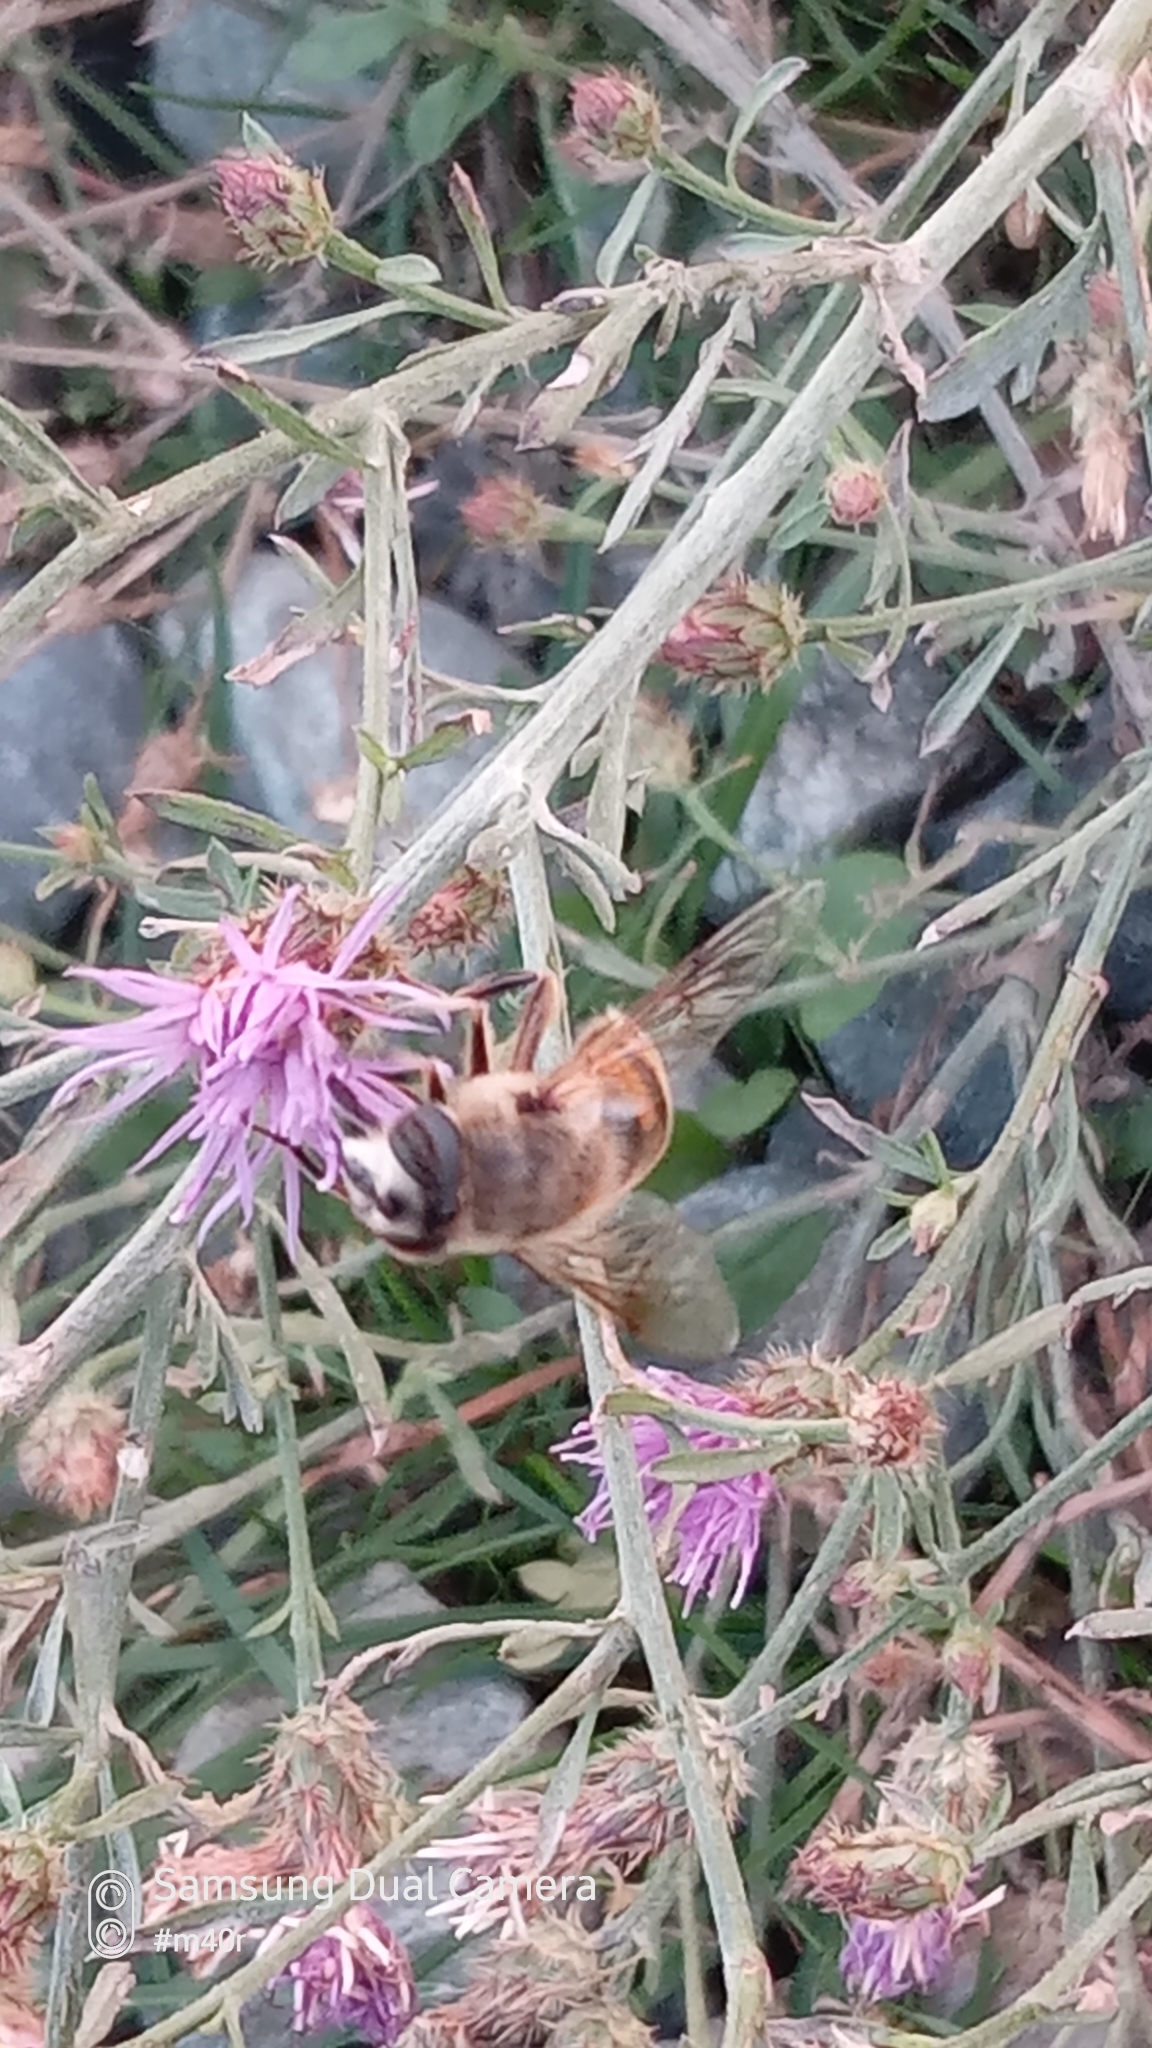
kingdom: Animalia
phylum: Arthropoda
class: Insecta
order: Diptera
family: Syrphidae
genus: Eristalis
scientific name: Eristalis tenax
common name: Drone fly
